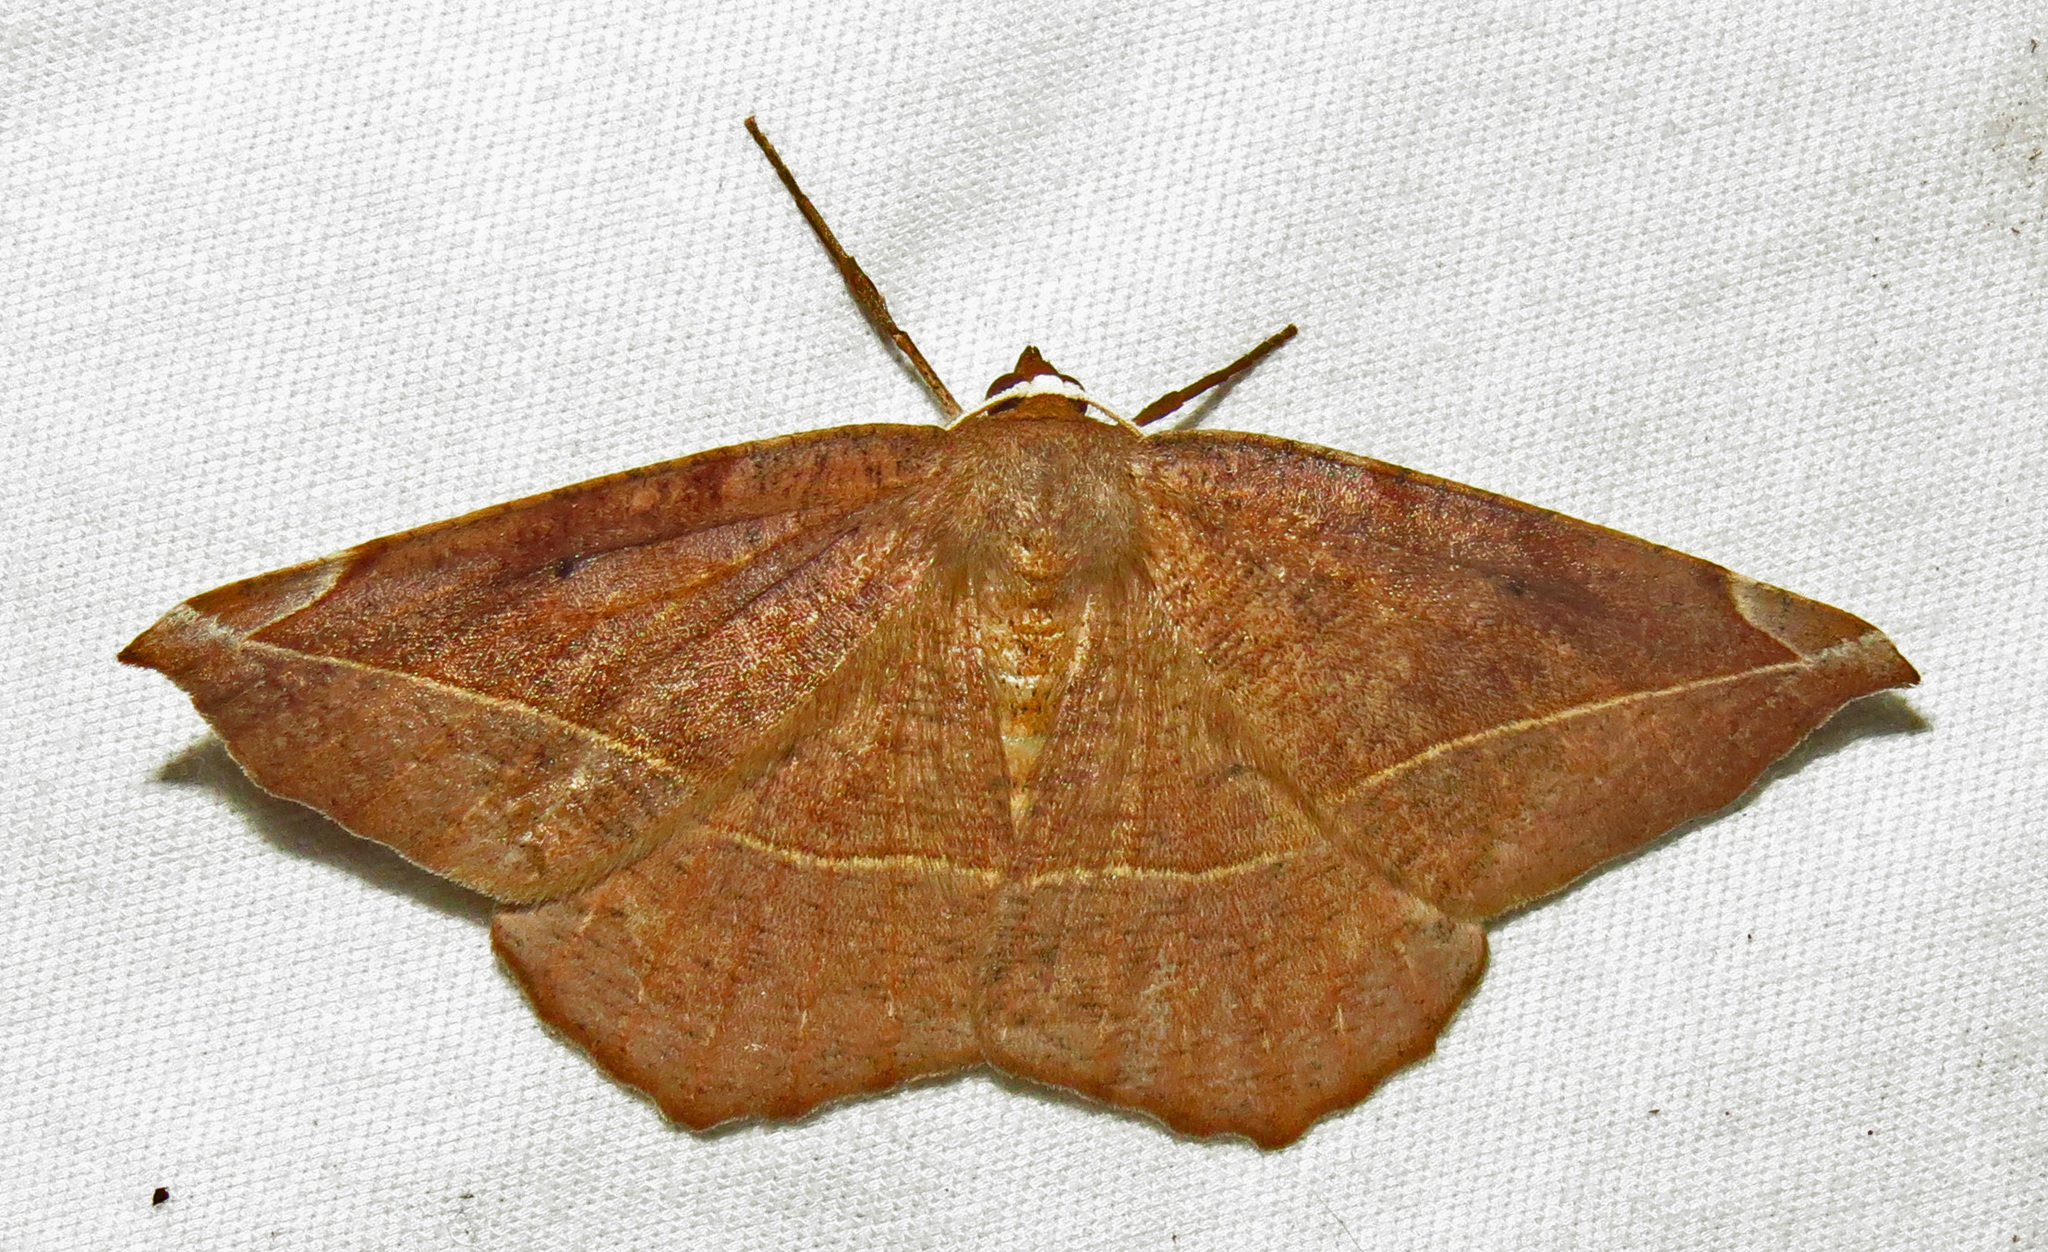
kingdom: Animalia
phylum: Arthropoda
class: Insecta
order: Lepidoptera
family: Geometridae
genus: Eutrapela
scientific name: Eutrapela clemataria
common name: Curved-toothed geometer
